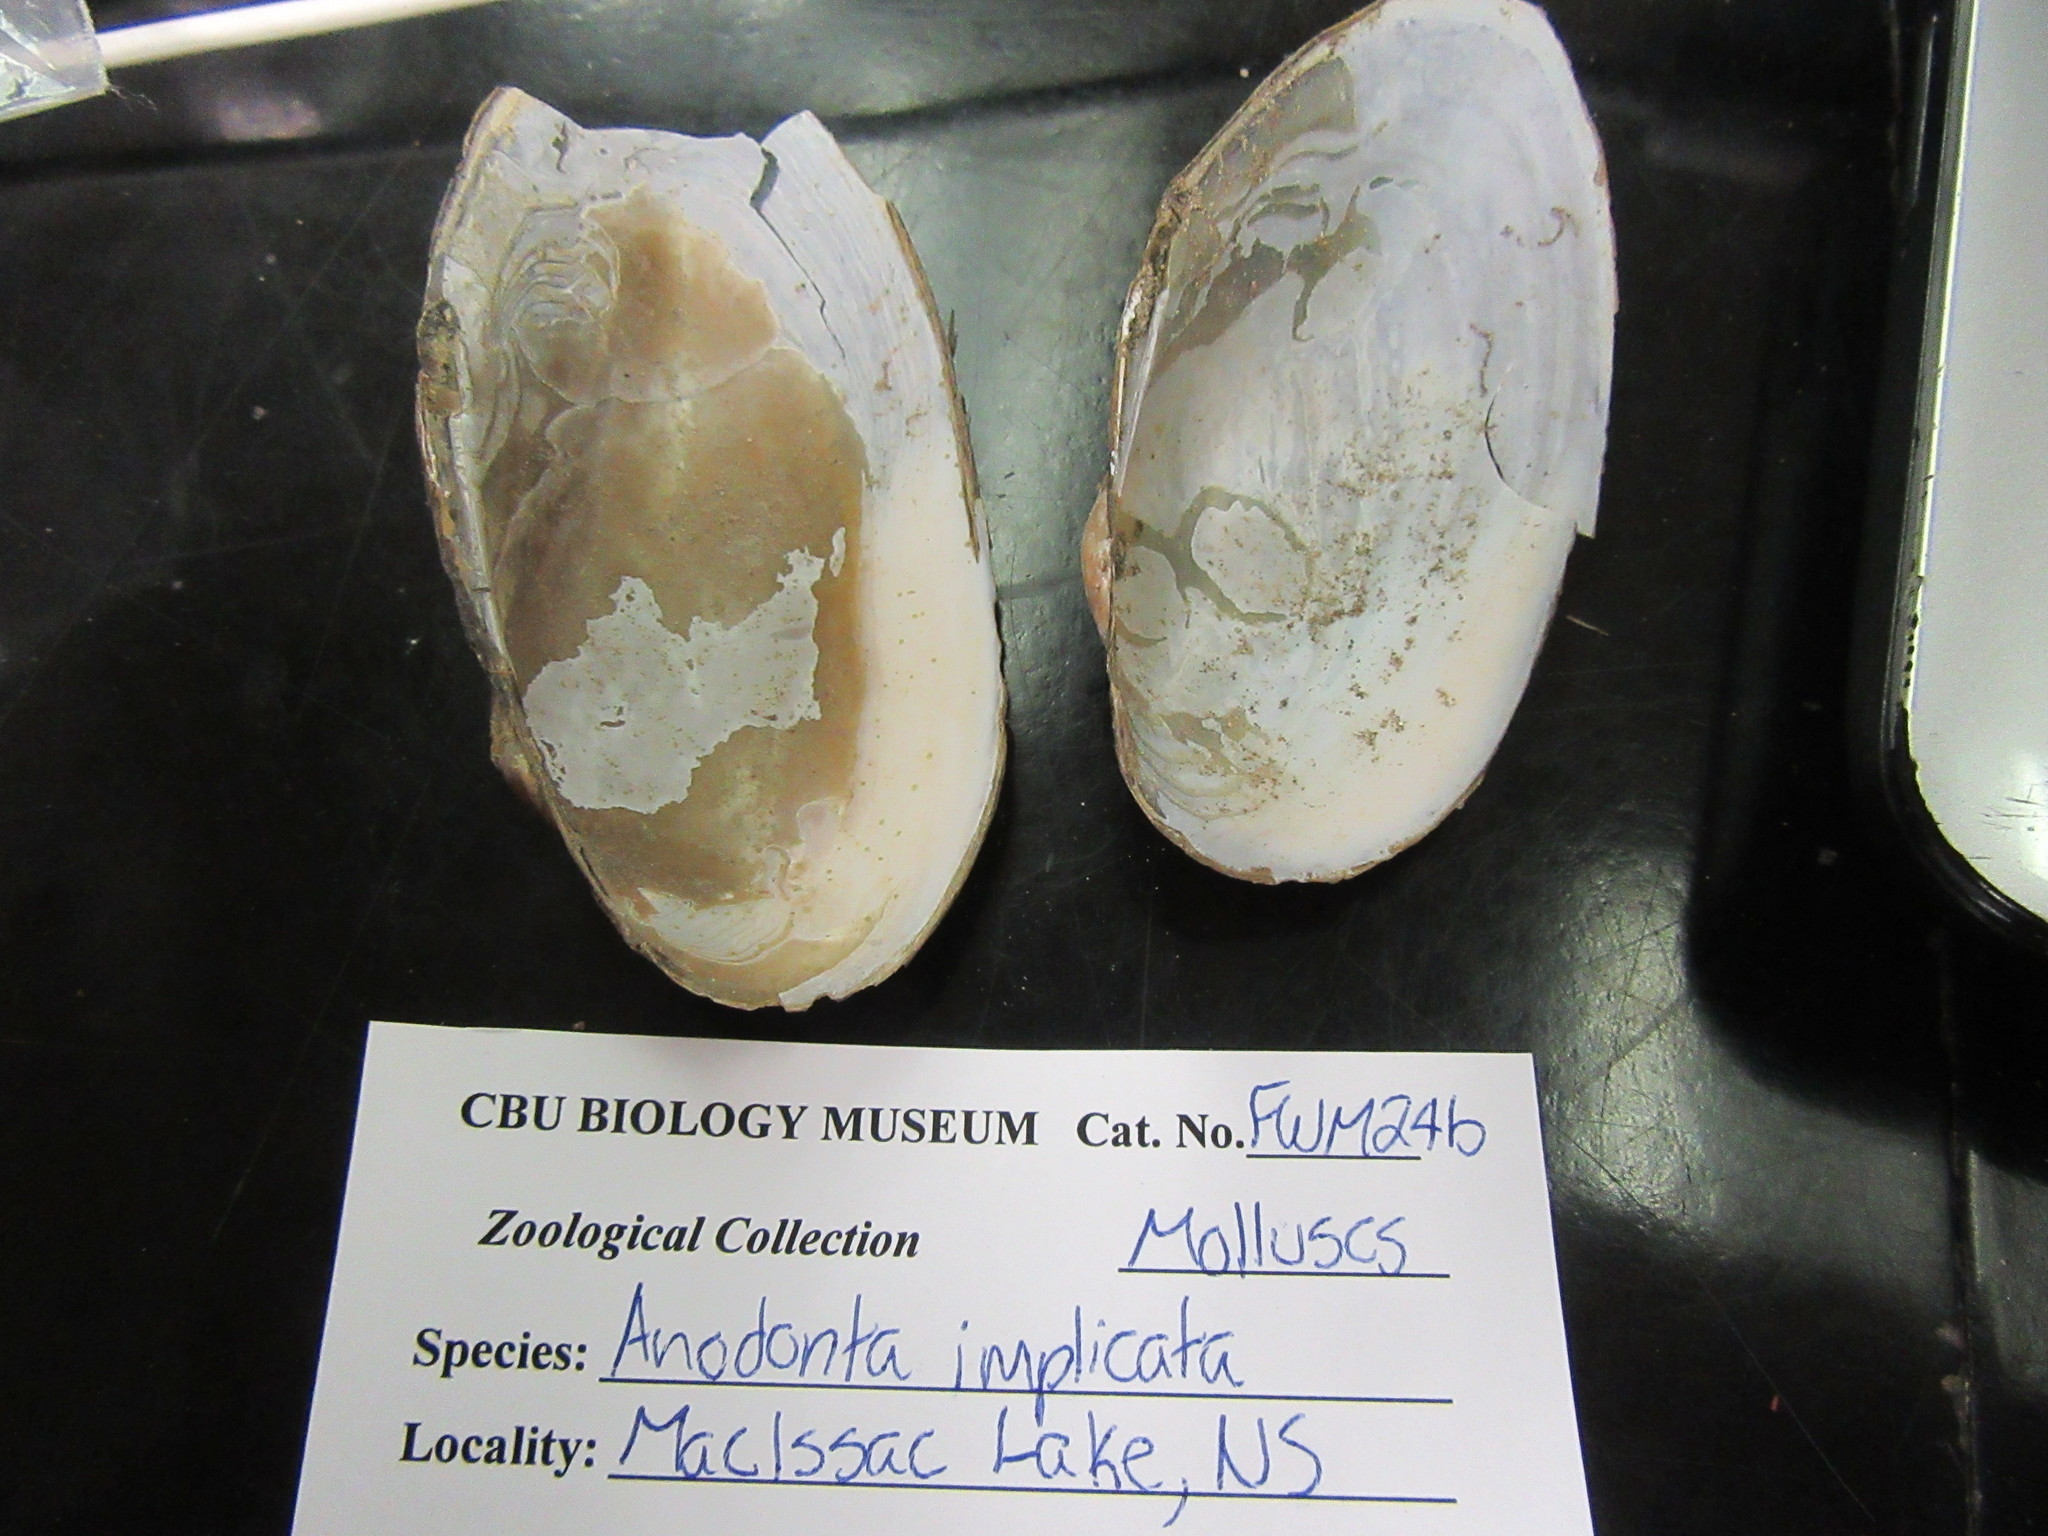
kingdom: Animalia
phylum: Mollusca
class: Bivalvia
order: Unionida
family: Unionidae
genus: Utterbackiana
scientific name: Utterbackiana implicata
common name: Alewife floater
